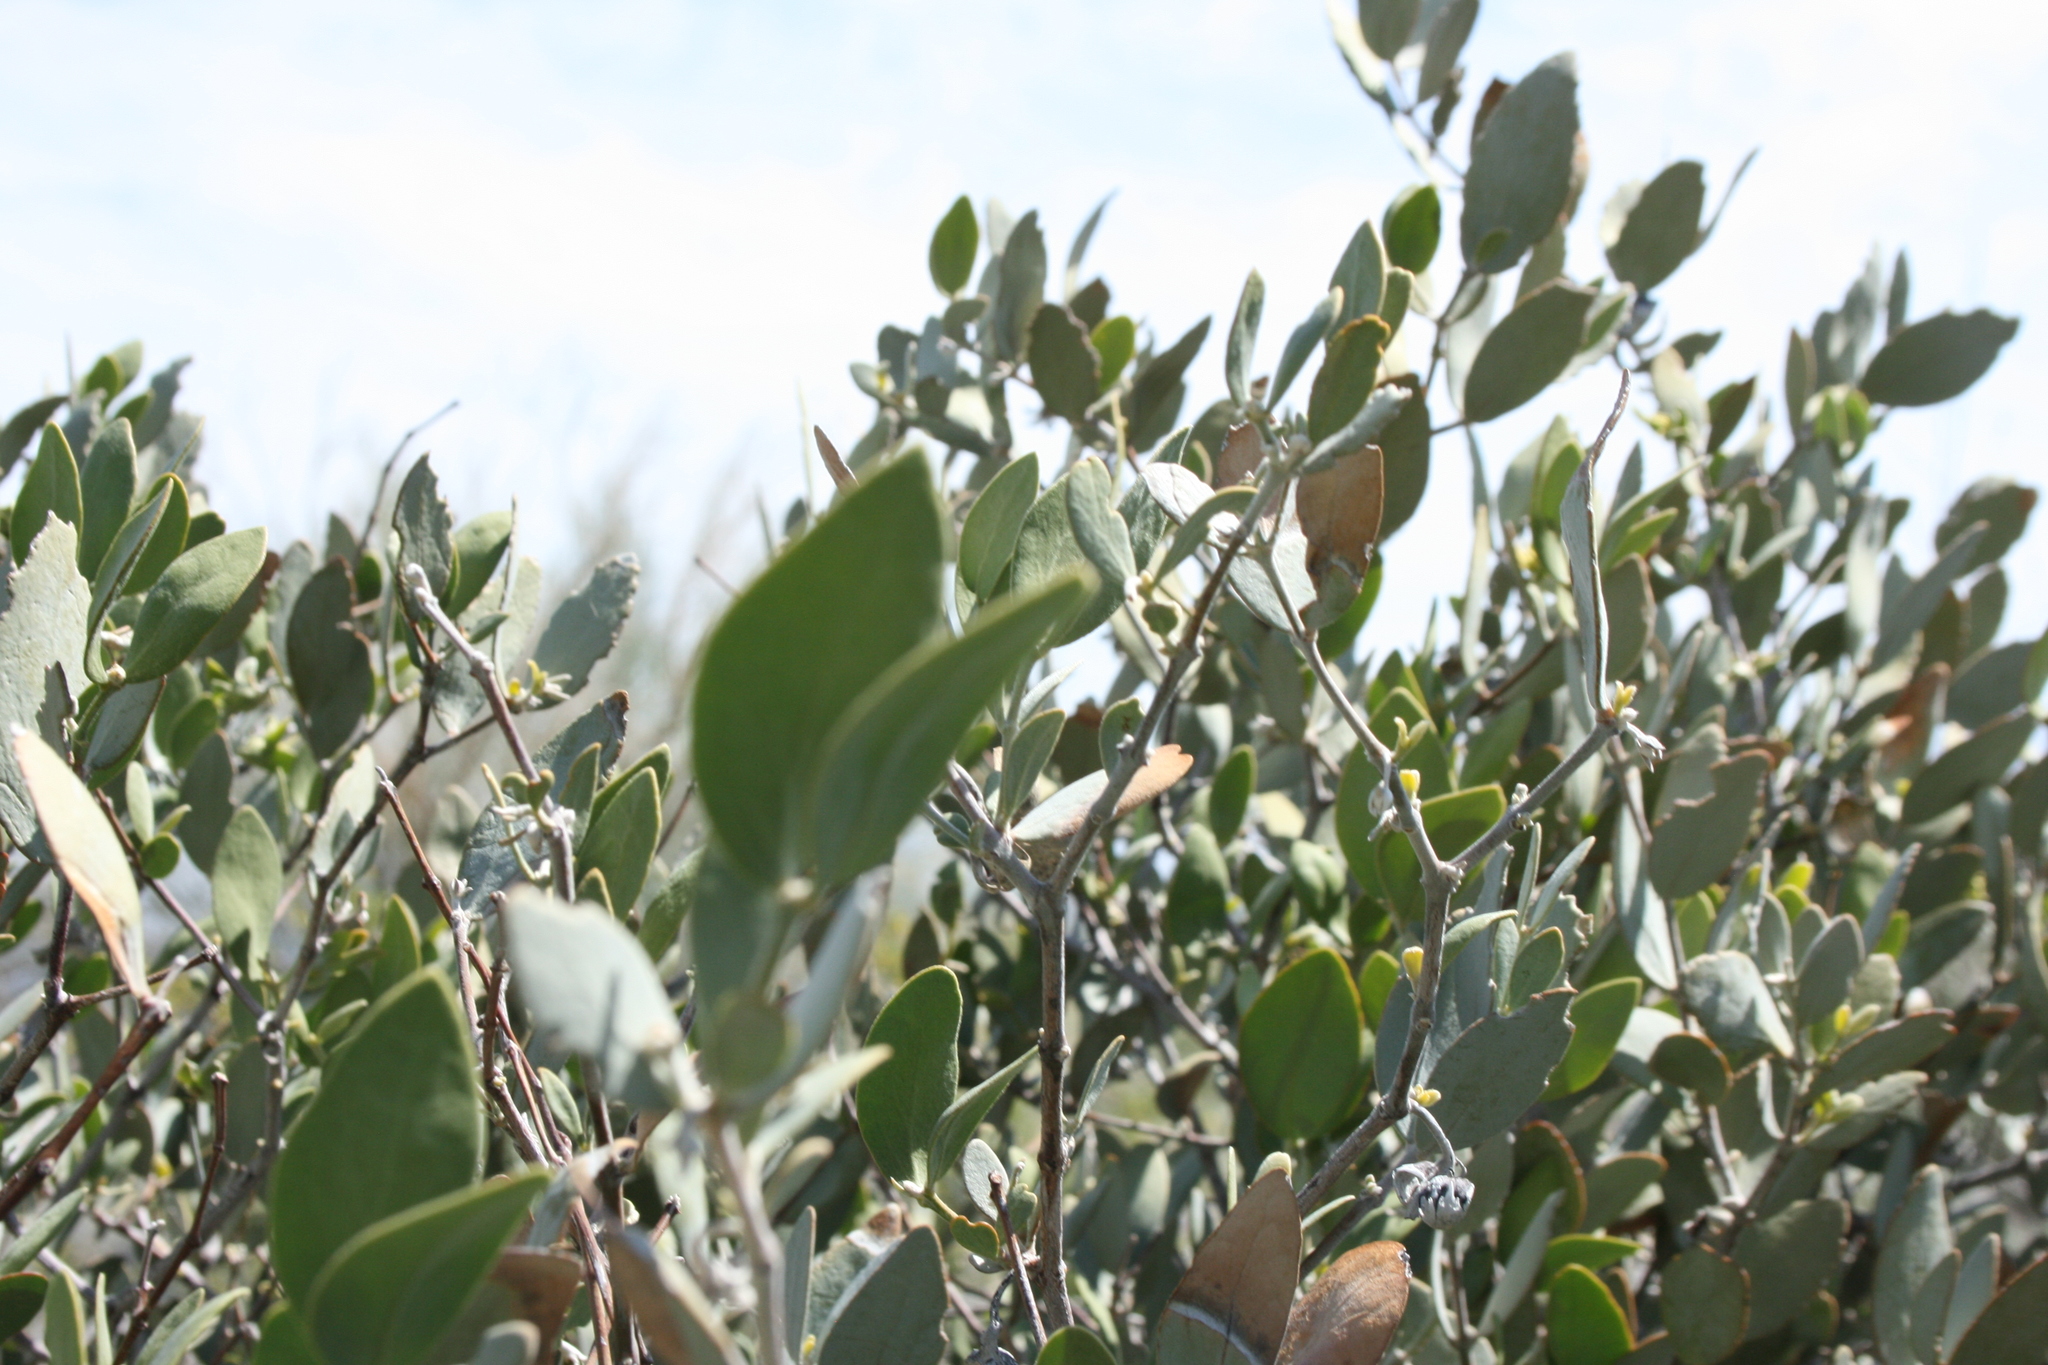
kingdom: Plantae
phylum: Tracheophyta
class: Magnoliopsida
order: Caryophyllales
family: Simmondsiaceae
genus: Simmondsia
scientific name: Simmondsia chinensis
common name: Jojoba
